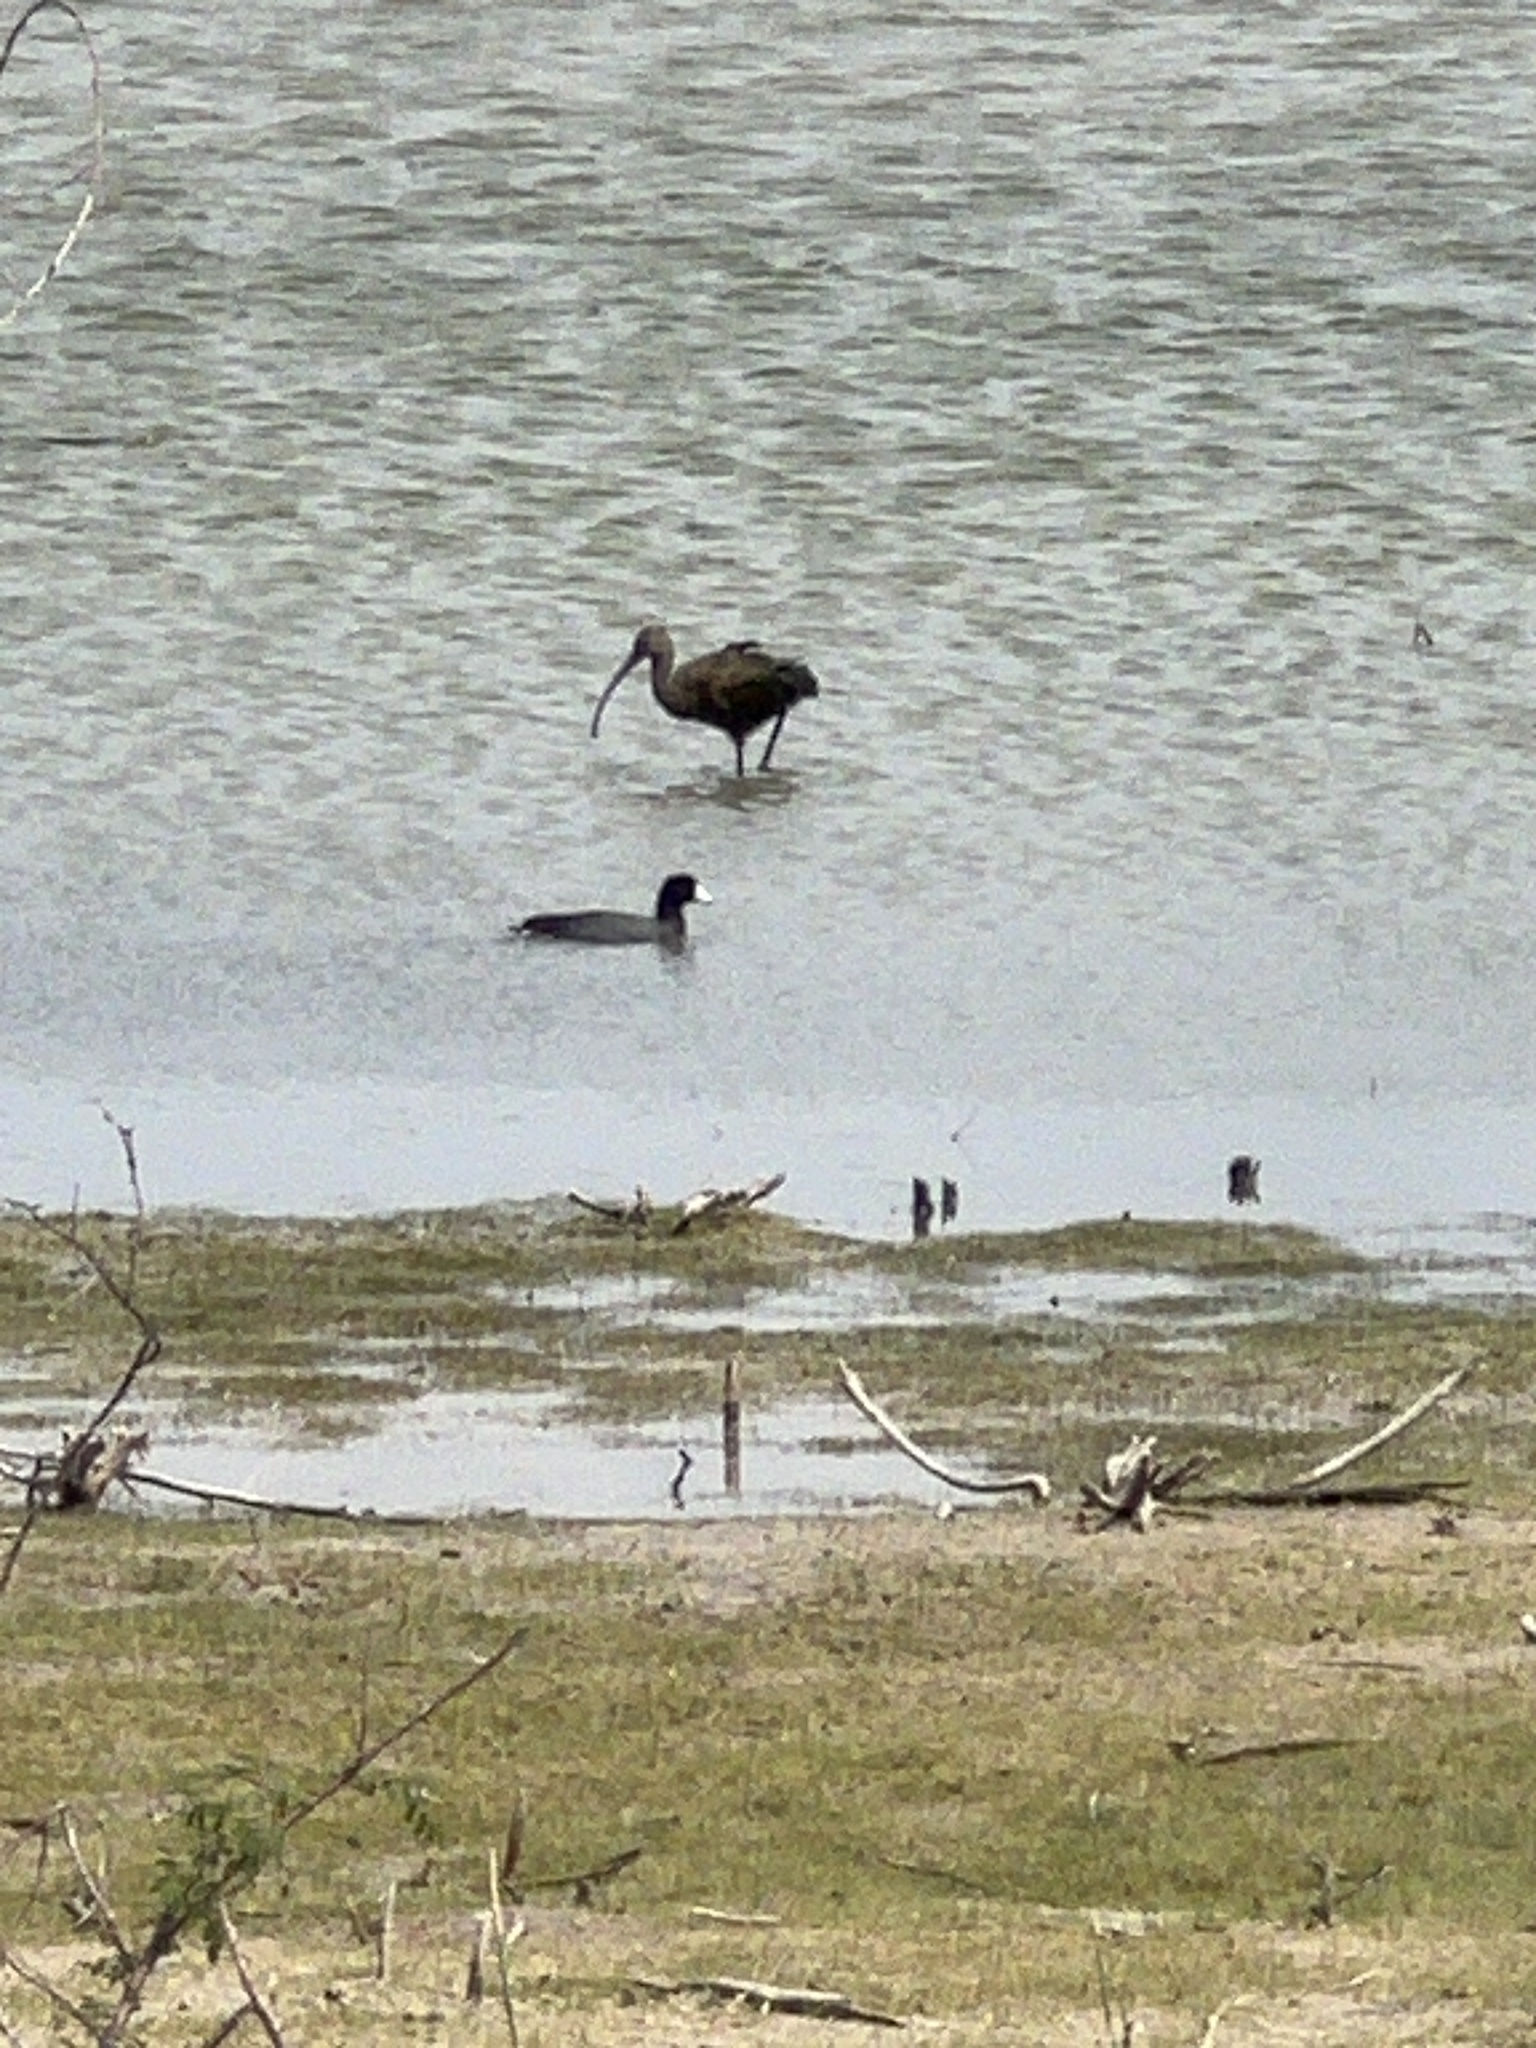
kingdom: Animalia
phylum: Chordata
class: Aves
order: Gruiformes
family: Rallidae
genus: Fulica
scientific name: Fulica americana
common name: American coot
